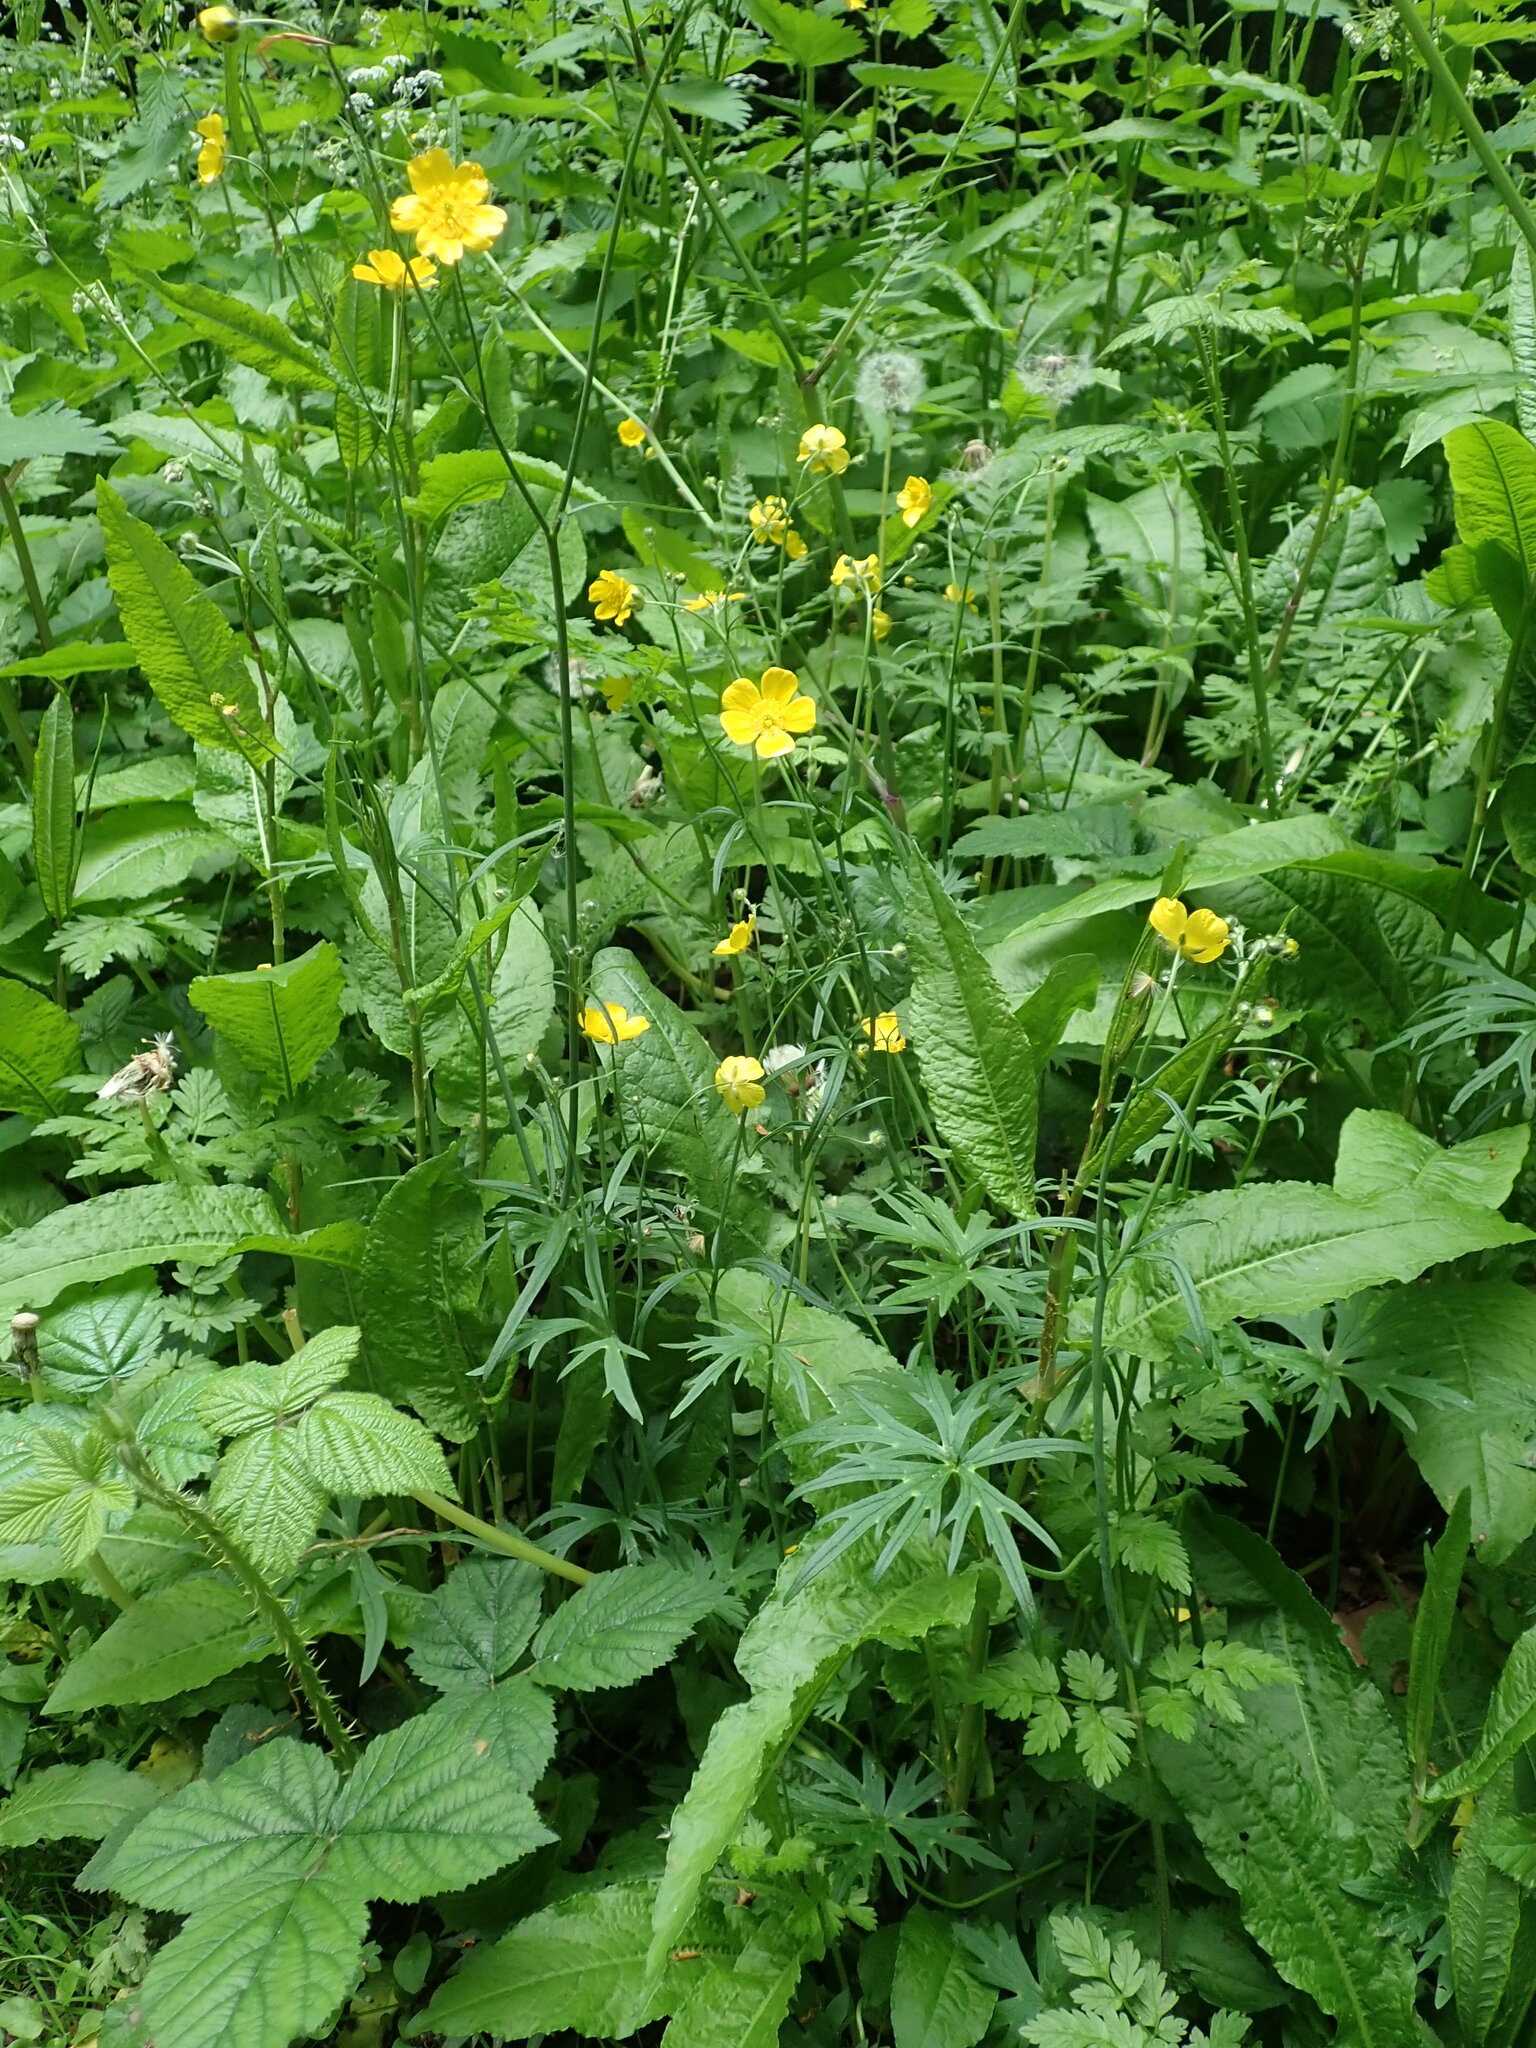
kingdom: Plantae
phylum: Tracheophyta
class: Magnoliopsida
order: Ranunculales
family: Ranunculaceae
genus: Ranunculus
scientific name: Ranunculus acris
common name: Meadow buttercup
